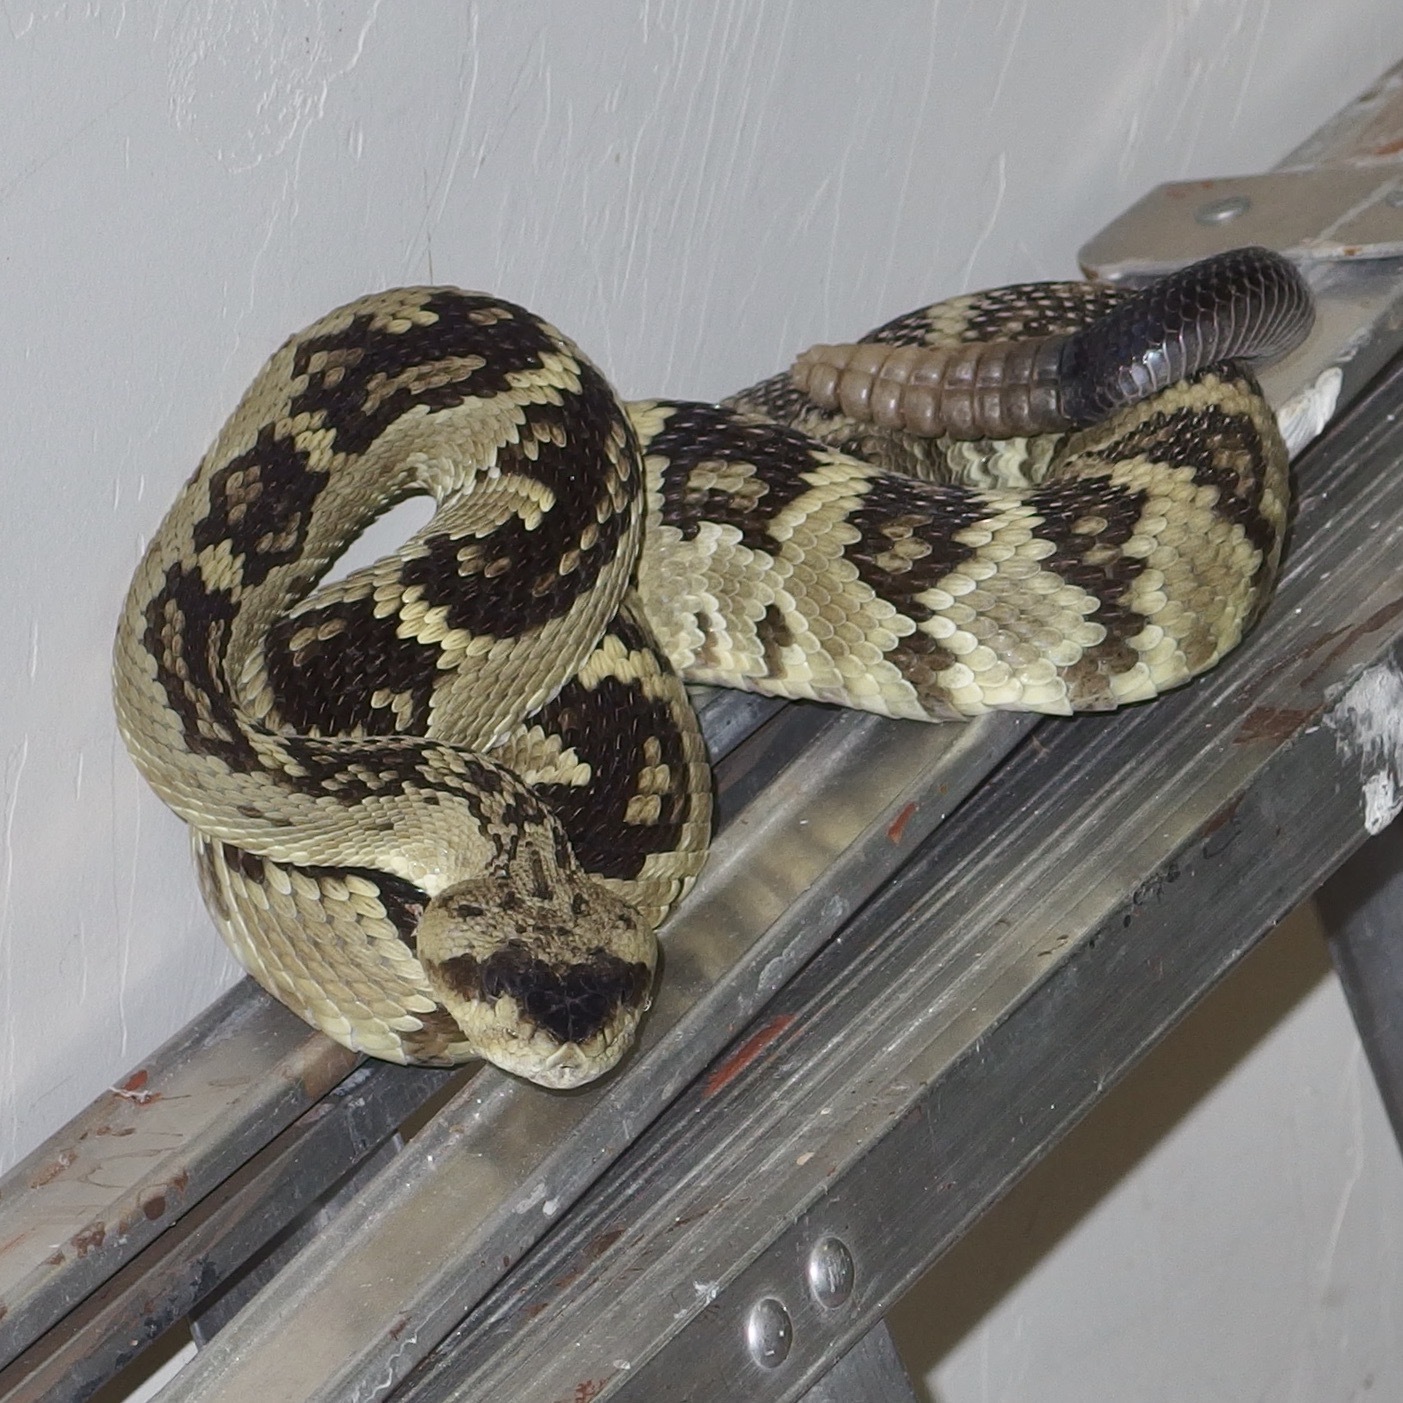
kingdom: Animalia
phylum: Chordata
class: Squamata
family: Viperidae
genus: Crotalus
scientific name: Crotalus molossus
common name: Black tailed rattlesnake
